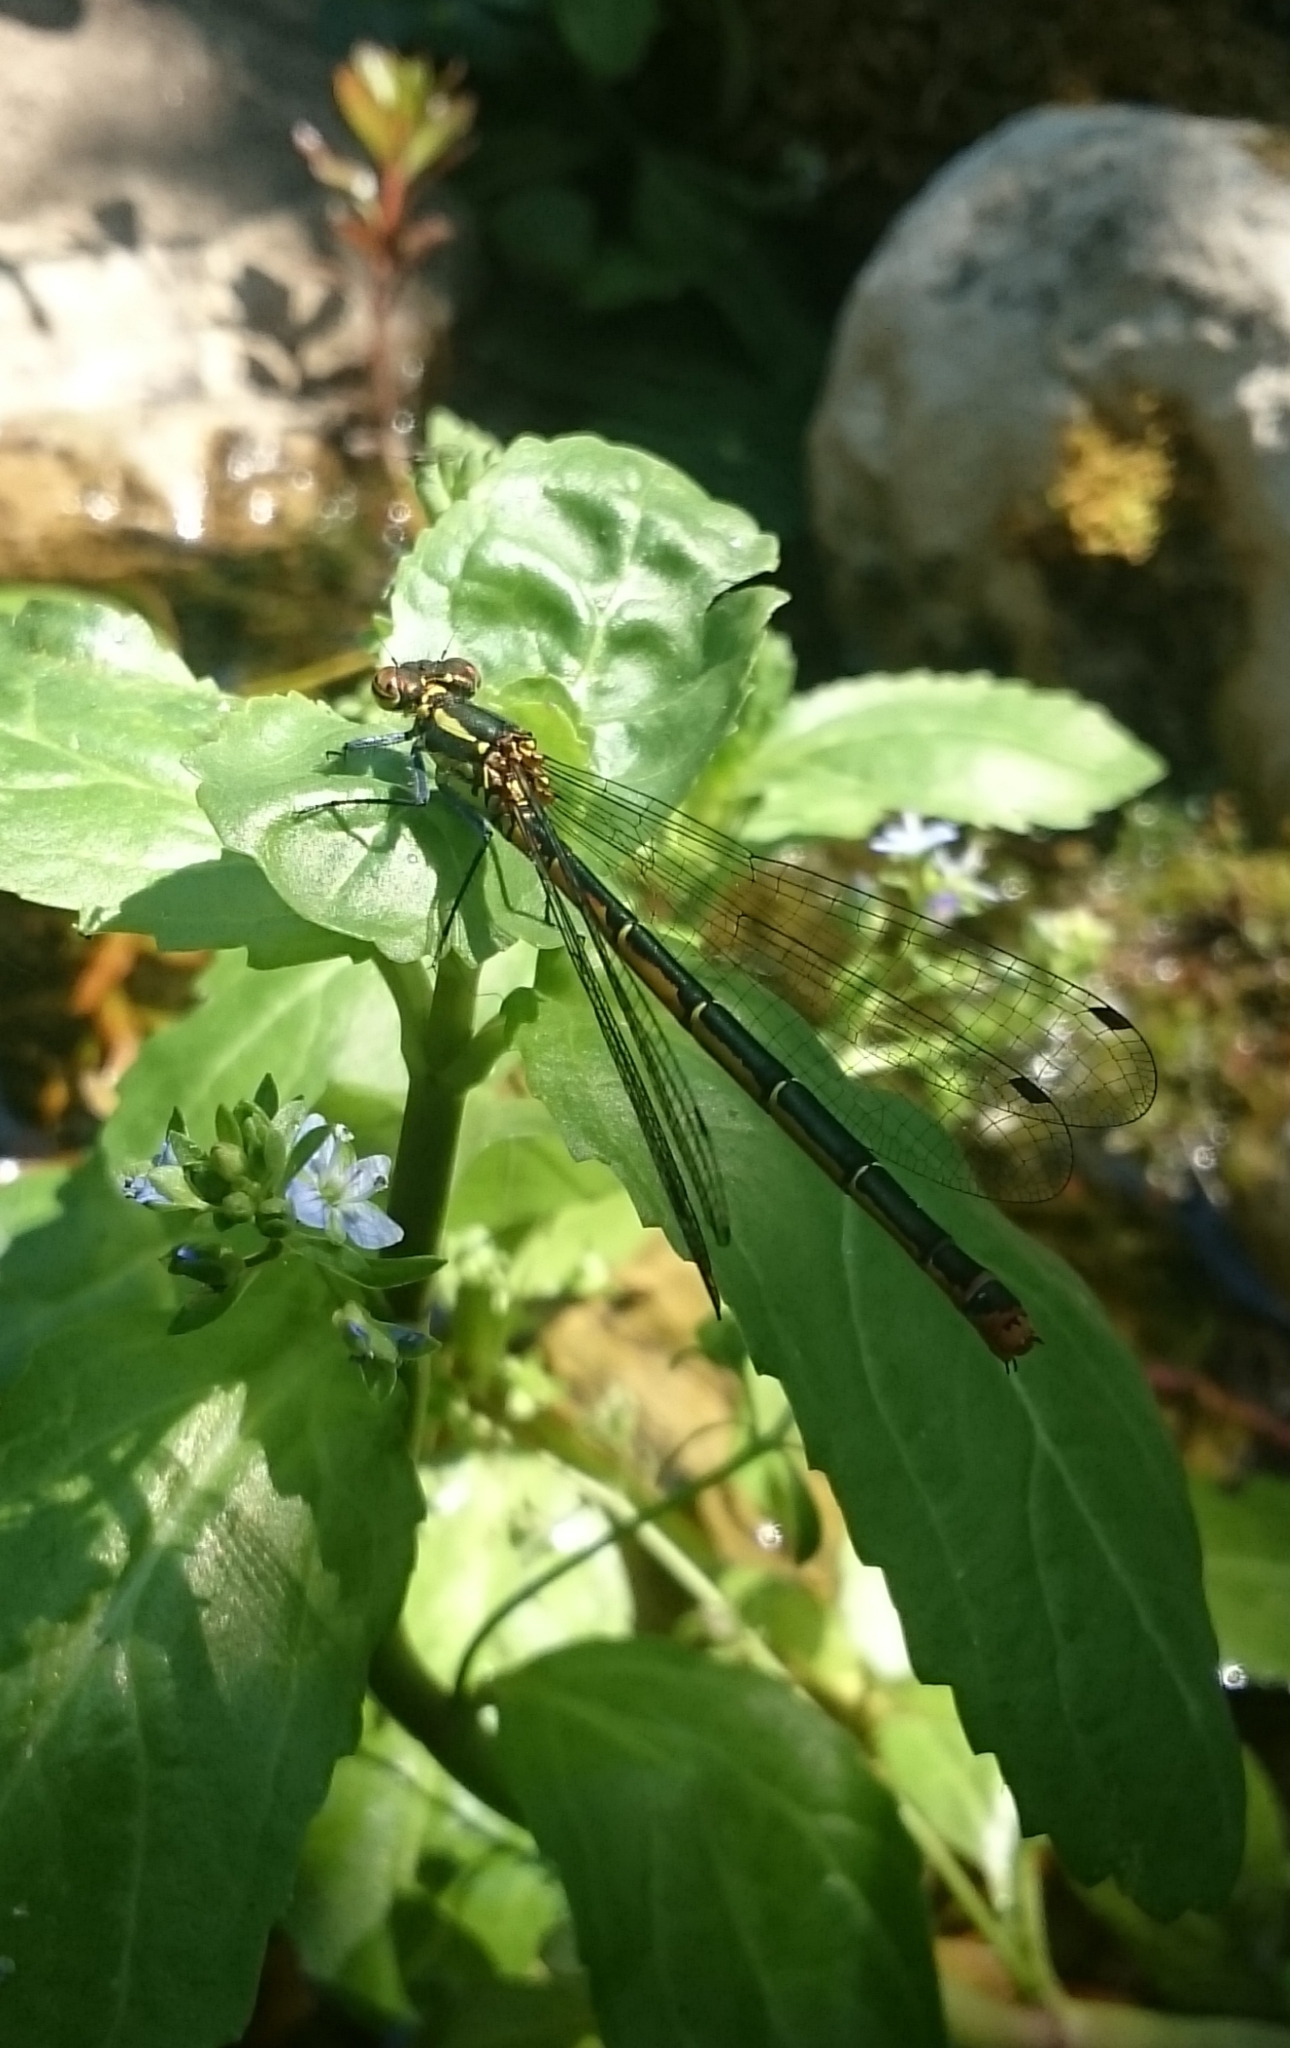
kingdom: Animalia
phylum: Arthropoda
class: Insecta
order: Odonata
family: Coenagrionidae
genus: Pyrrhosoma
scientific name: Pyrrhosoma nymphula
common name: Large red damsel
